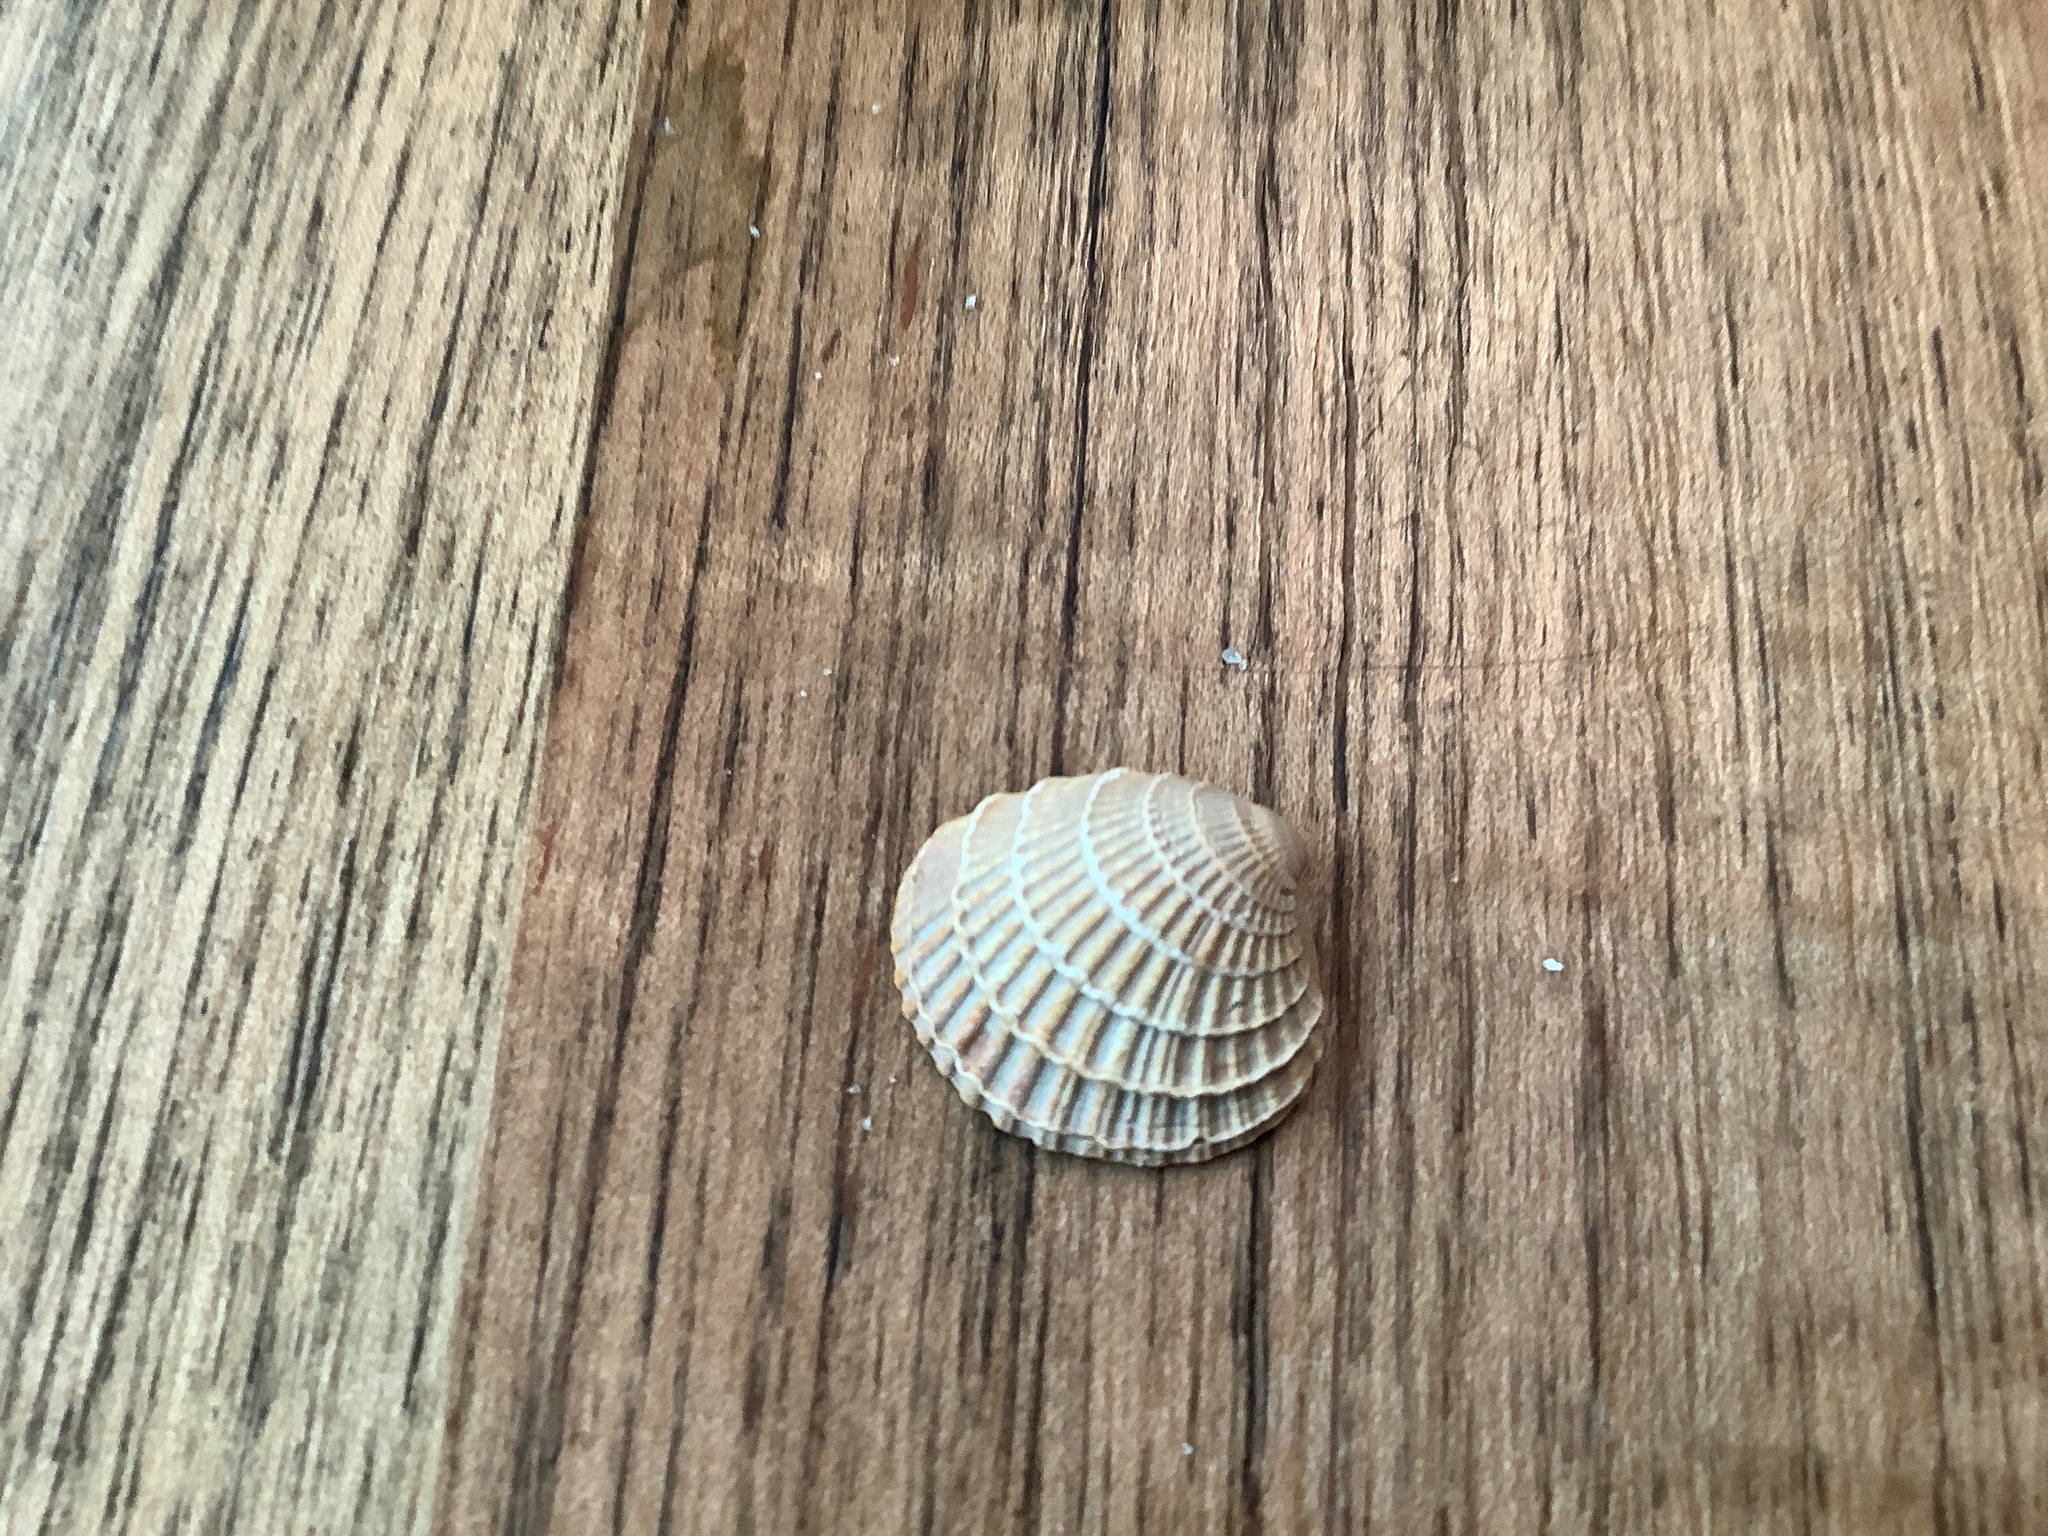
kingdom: Animalia
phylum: Mollusca
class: Bivalvia
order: Venerida
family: Veneridae
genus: Chione
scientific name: Chione elevata
